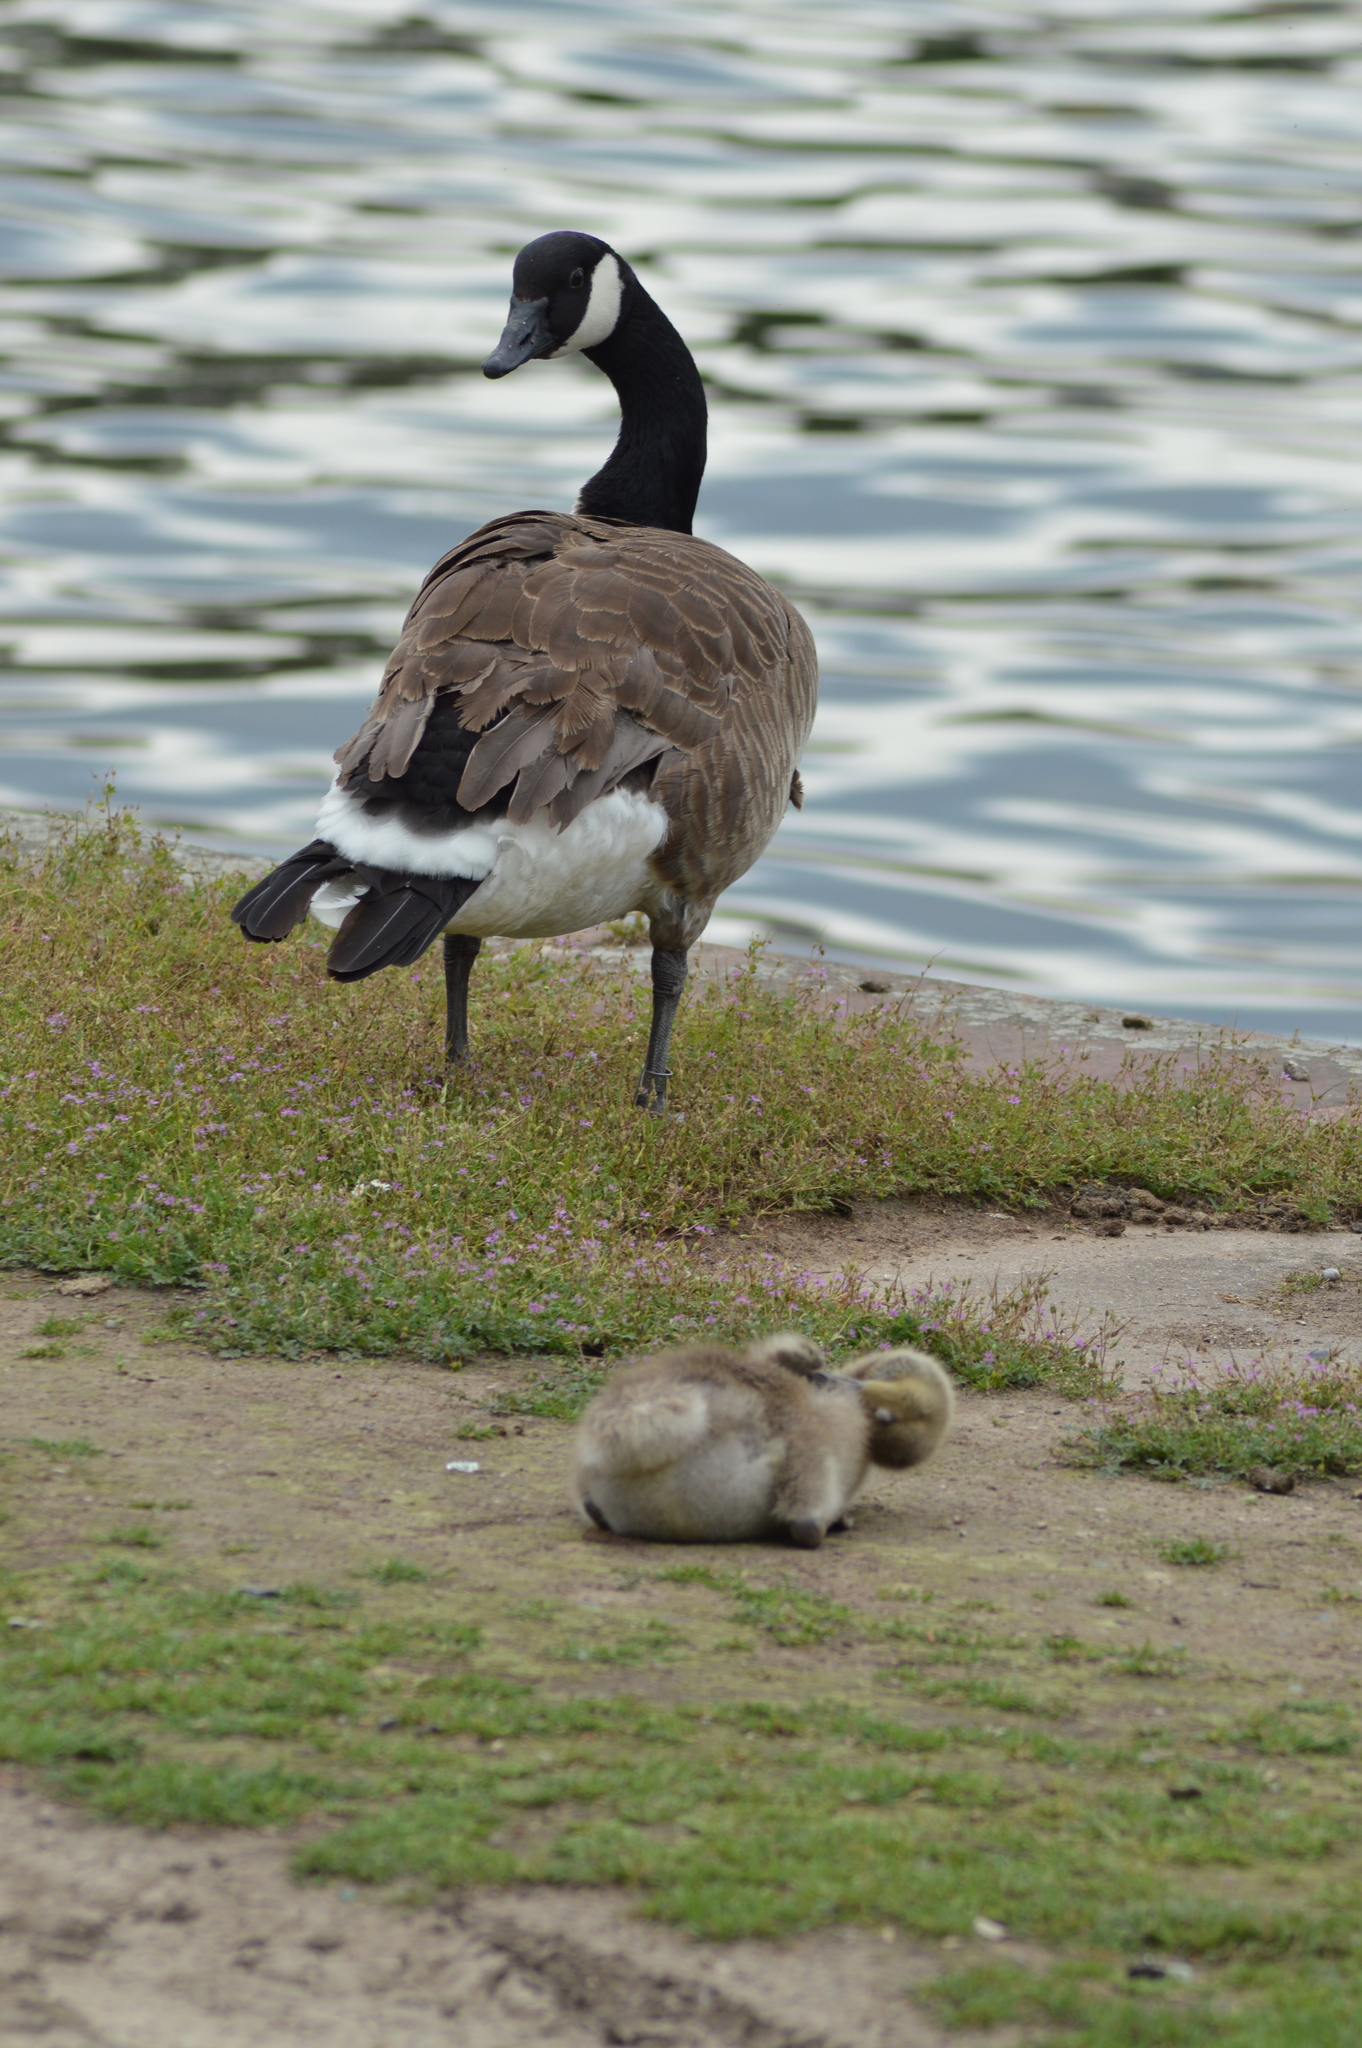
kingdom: Animalia
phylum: Chordata
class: Aves
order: Anseriformes
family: Anatidae
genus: Branta
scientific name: Branta canadensis
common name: Canada goose
